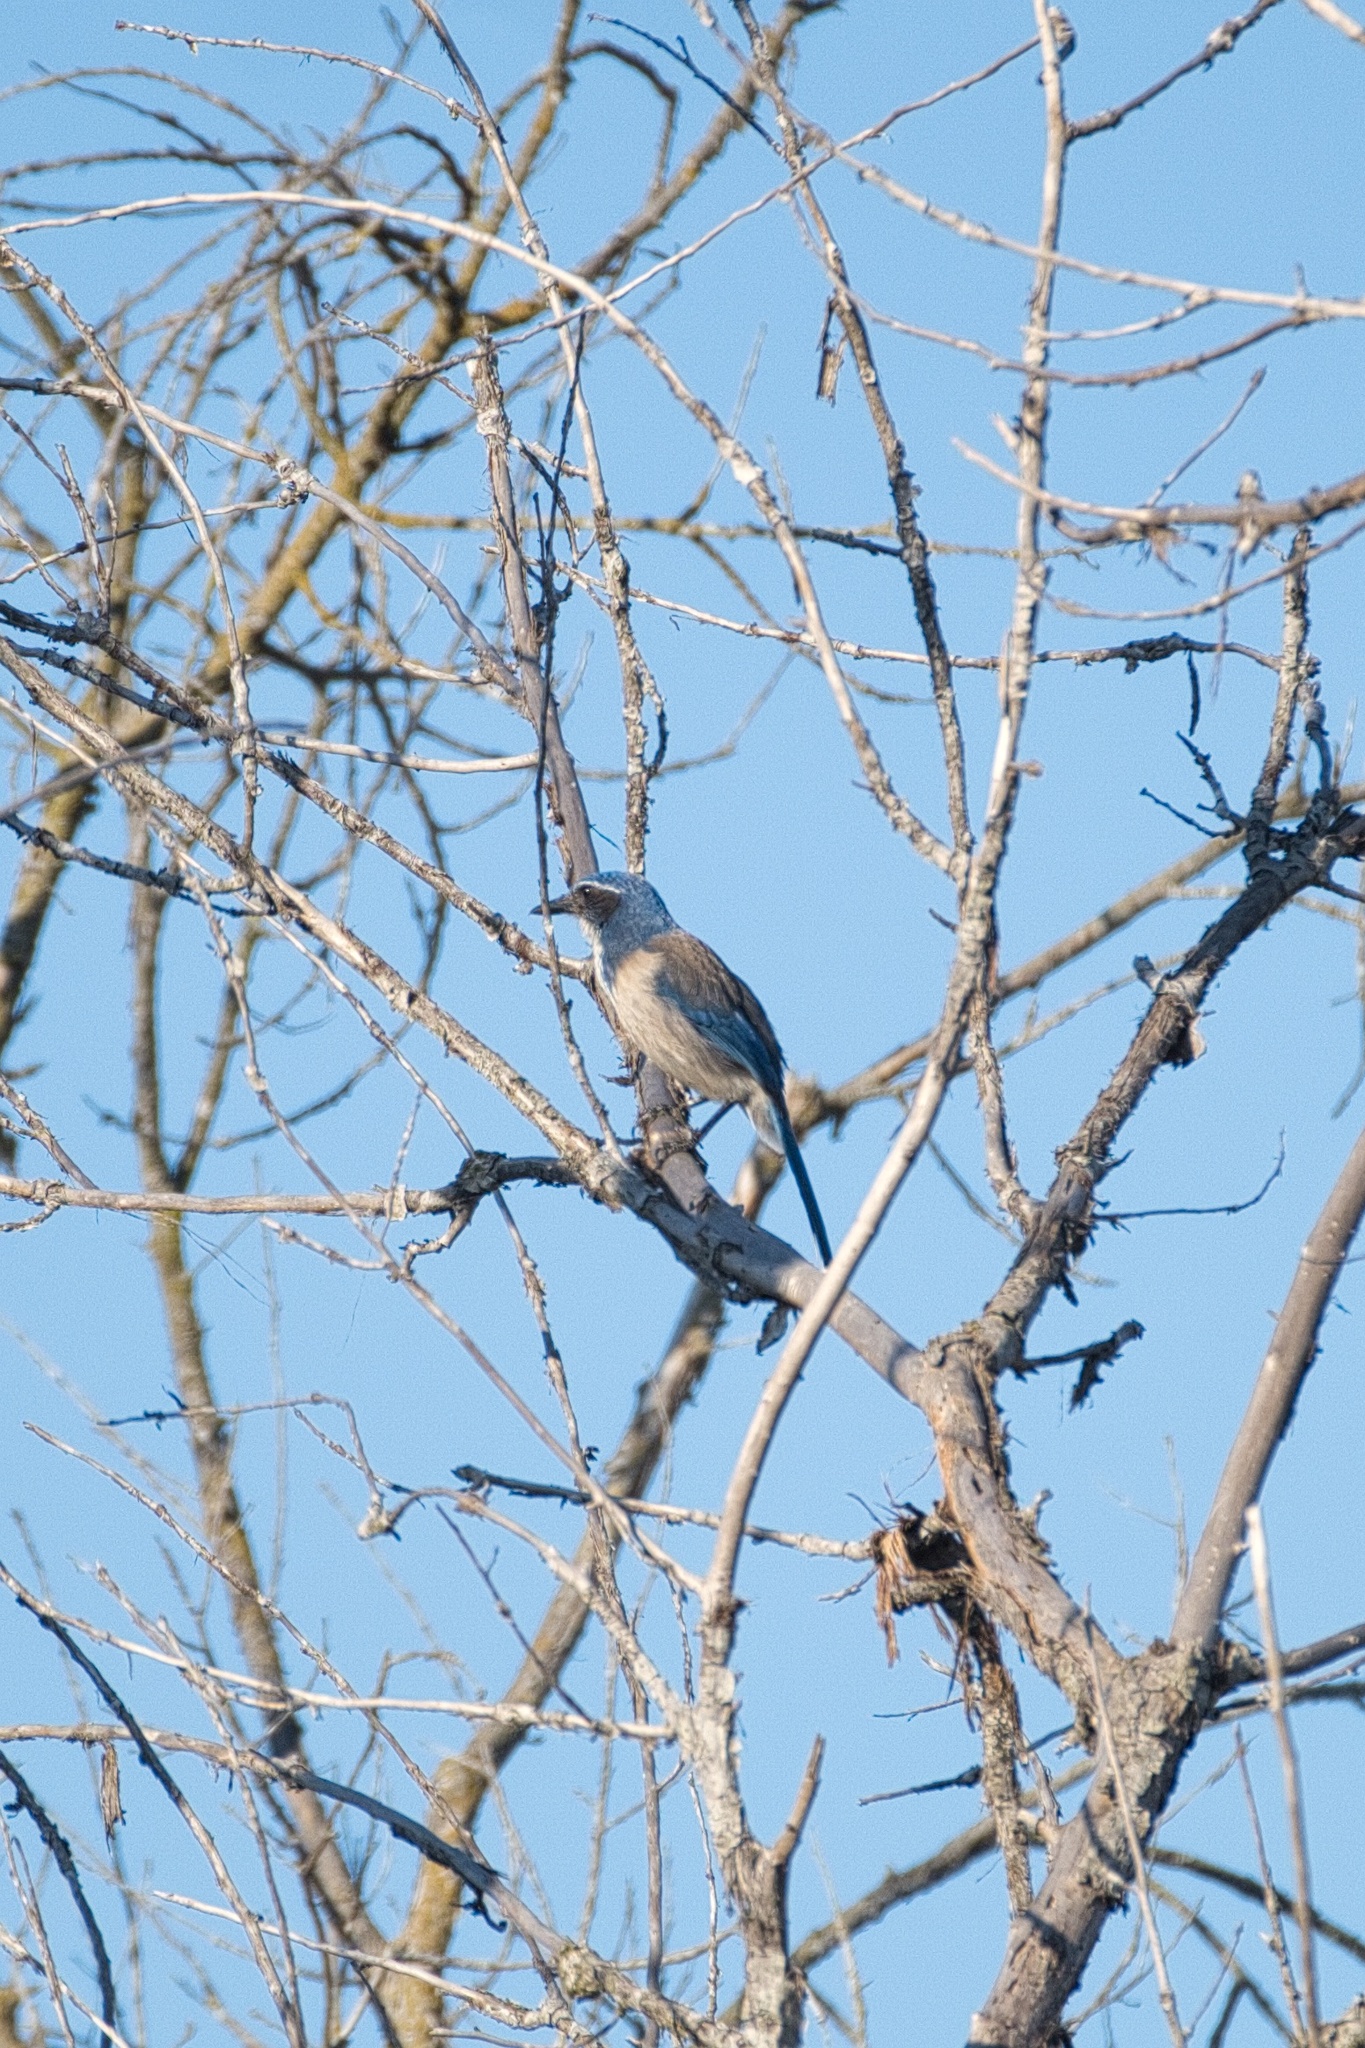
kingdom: Animalia
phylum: Chordata
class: Aves
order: Passeriformes
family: Corvidae
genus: Aphelocoma
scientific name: Aphelocoma californica
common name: California scrub-jay
